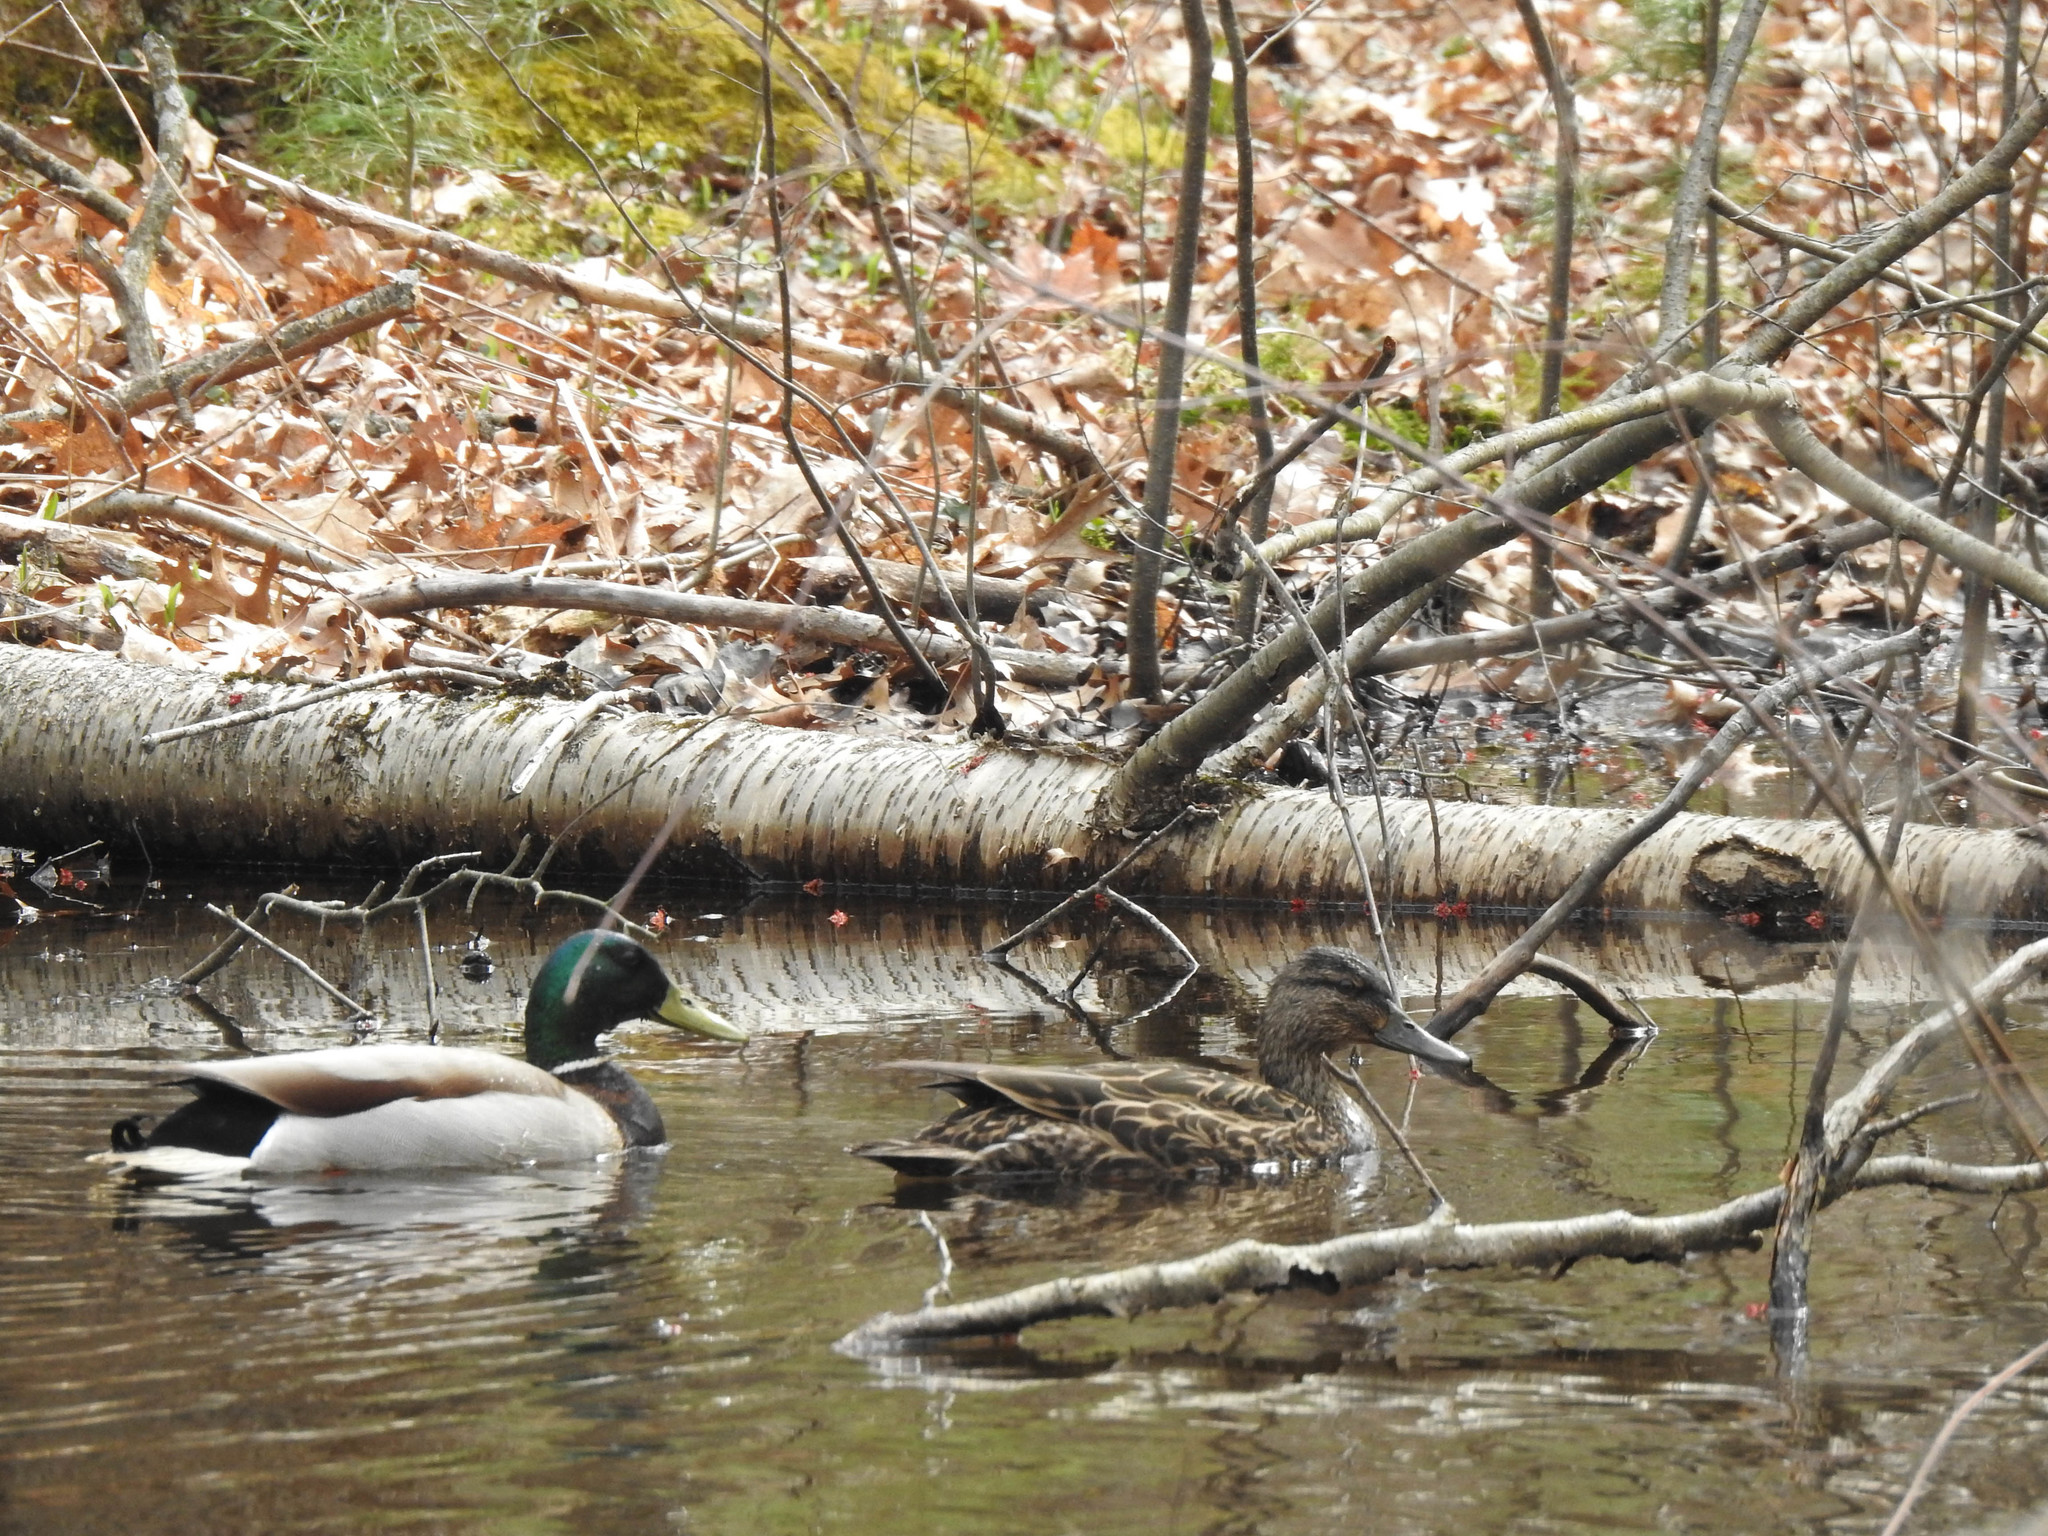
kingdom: Animalia
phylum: Chordata
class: Aves
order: Anseriformes
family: Anatidae
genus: Anas
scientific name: Anas platyrhynchos
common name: Mallard
